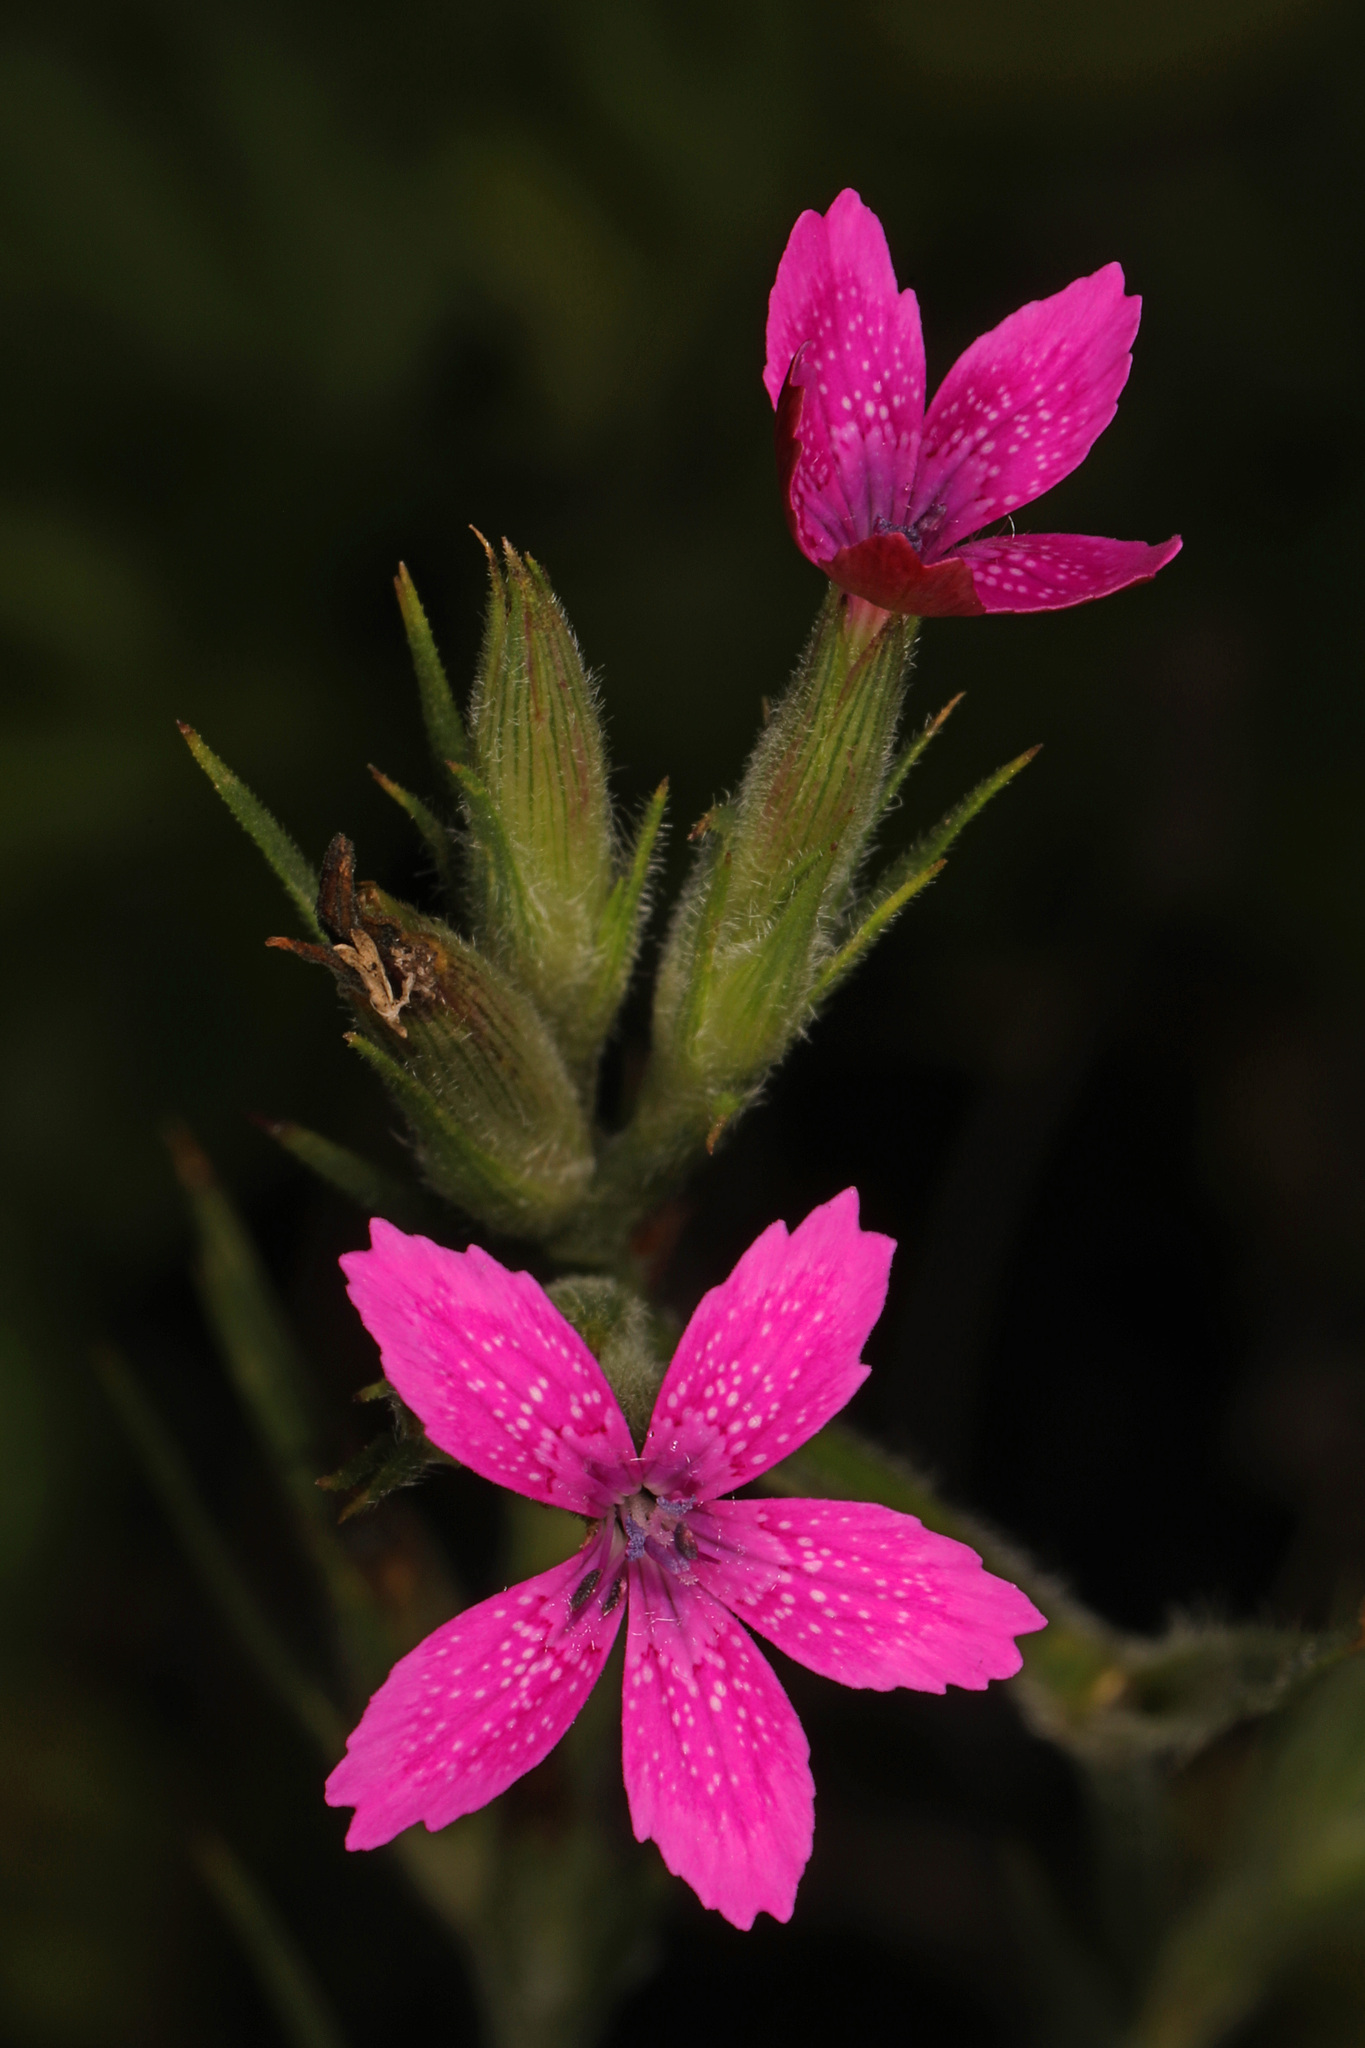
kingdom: Plantae
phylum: Tracheophyta
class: Magnoliopsida
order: Caryophyllales
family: Caryophyllaceae
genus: Dianthus
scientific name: Dianthus armeria
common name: Deptford pink
